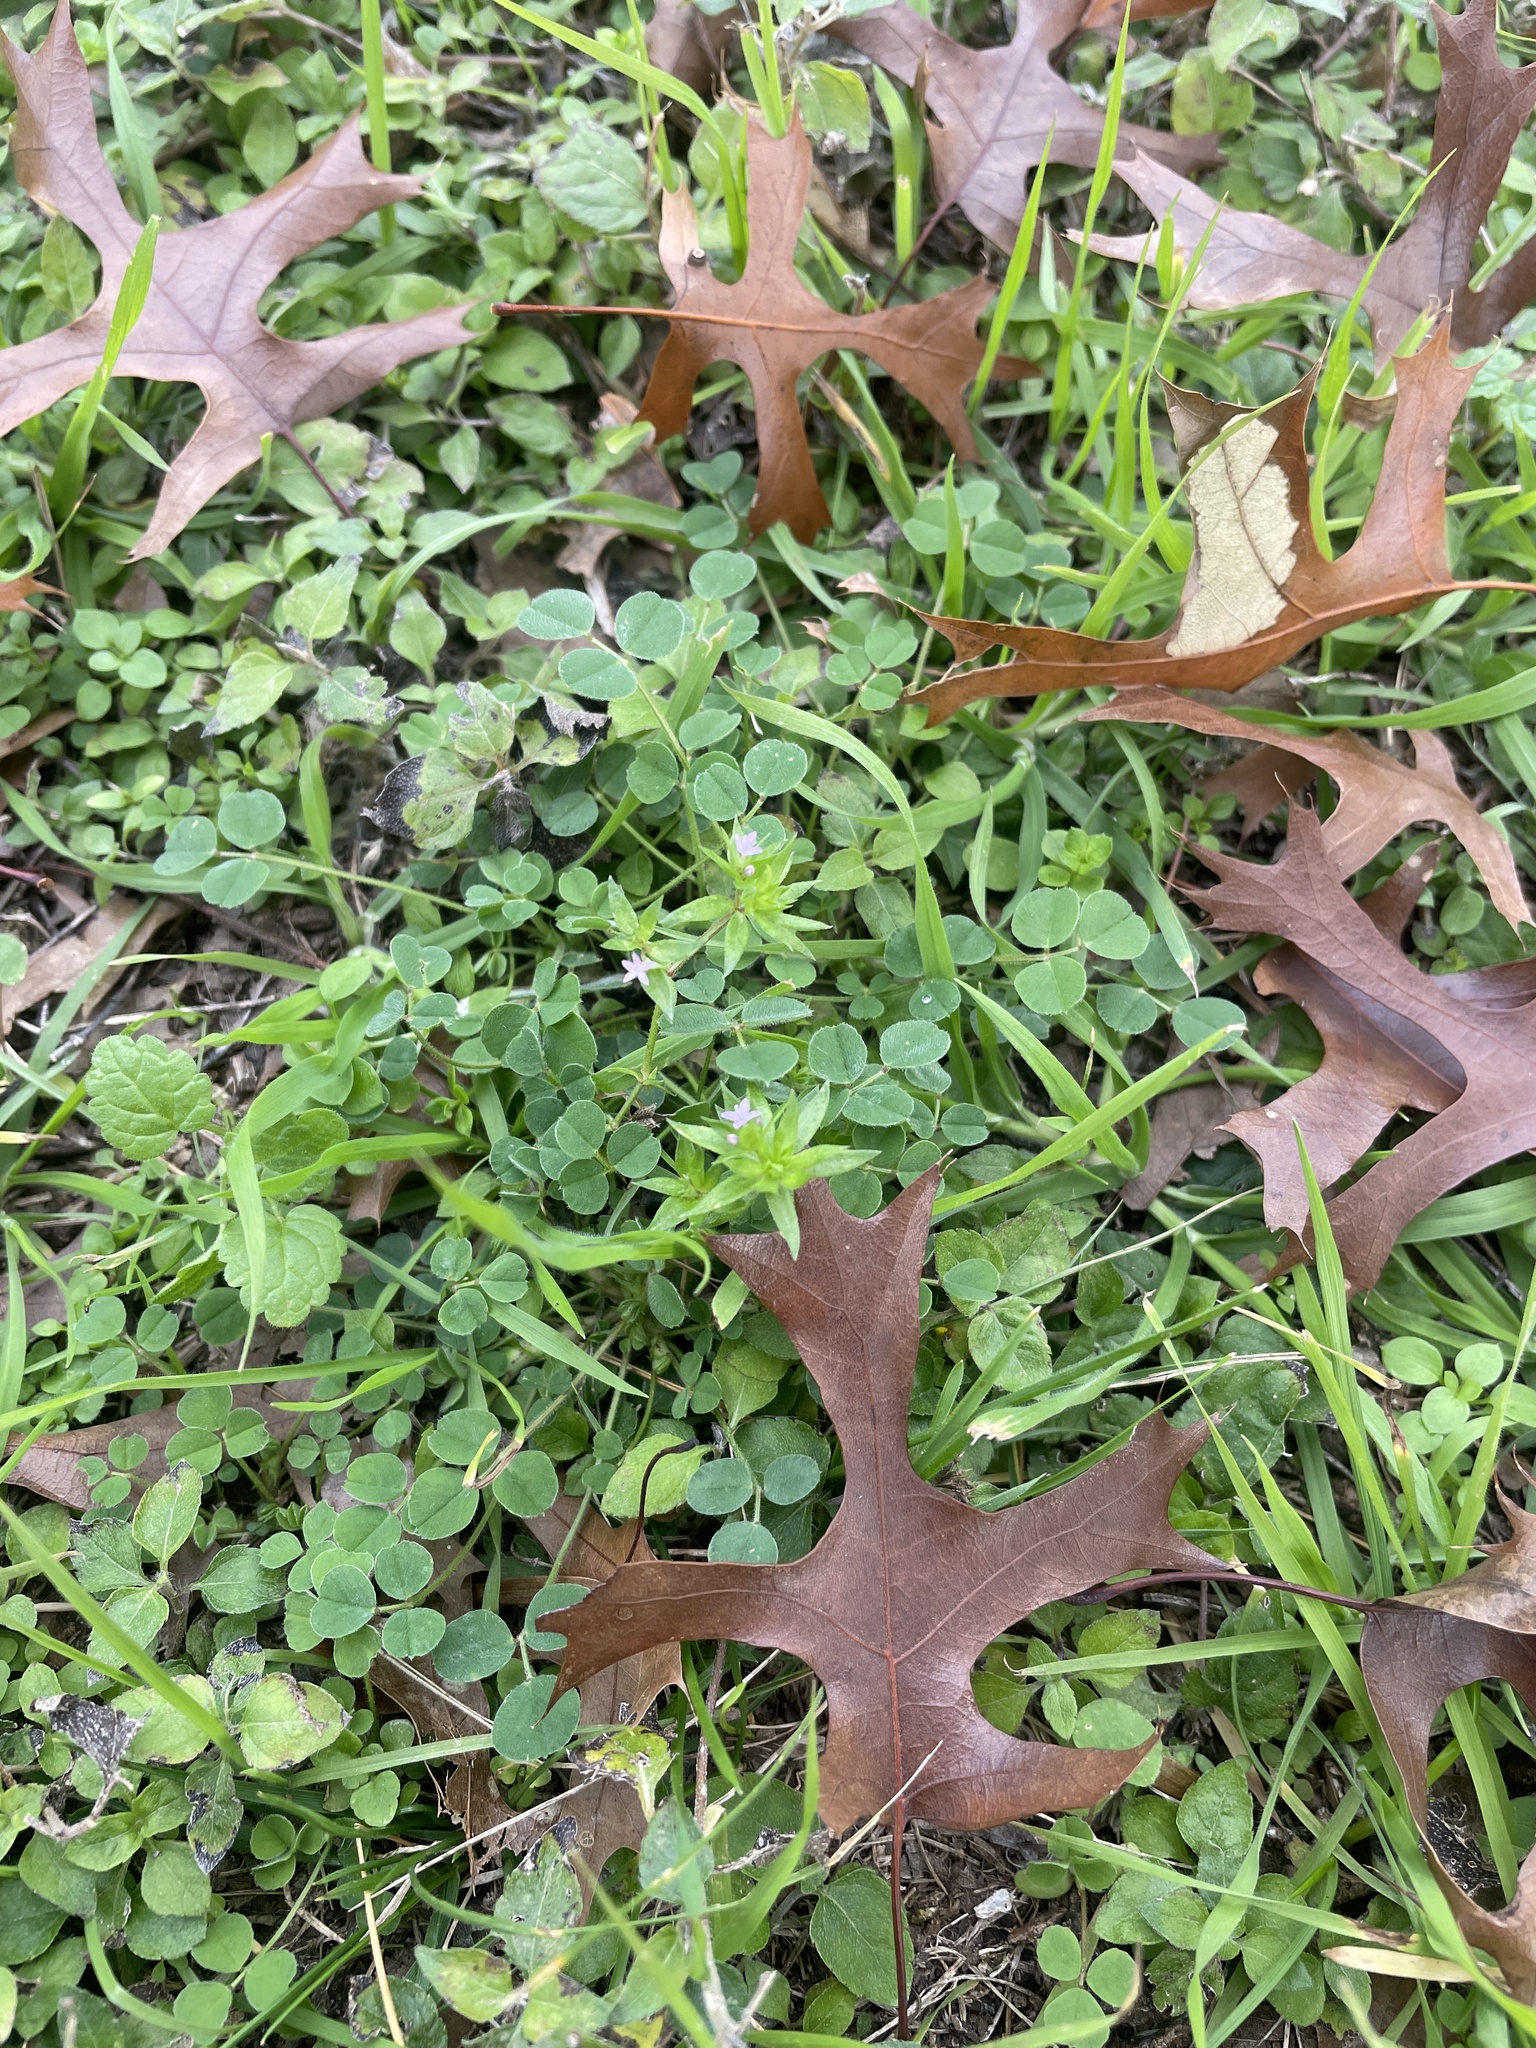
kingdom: Plantae
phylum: Tracheophyta
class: Magnoliopsida
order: Gentianales
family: Rubiaceae
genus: Sherardia
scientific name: Sherardia arvensis
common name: Field madder
